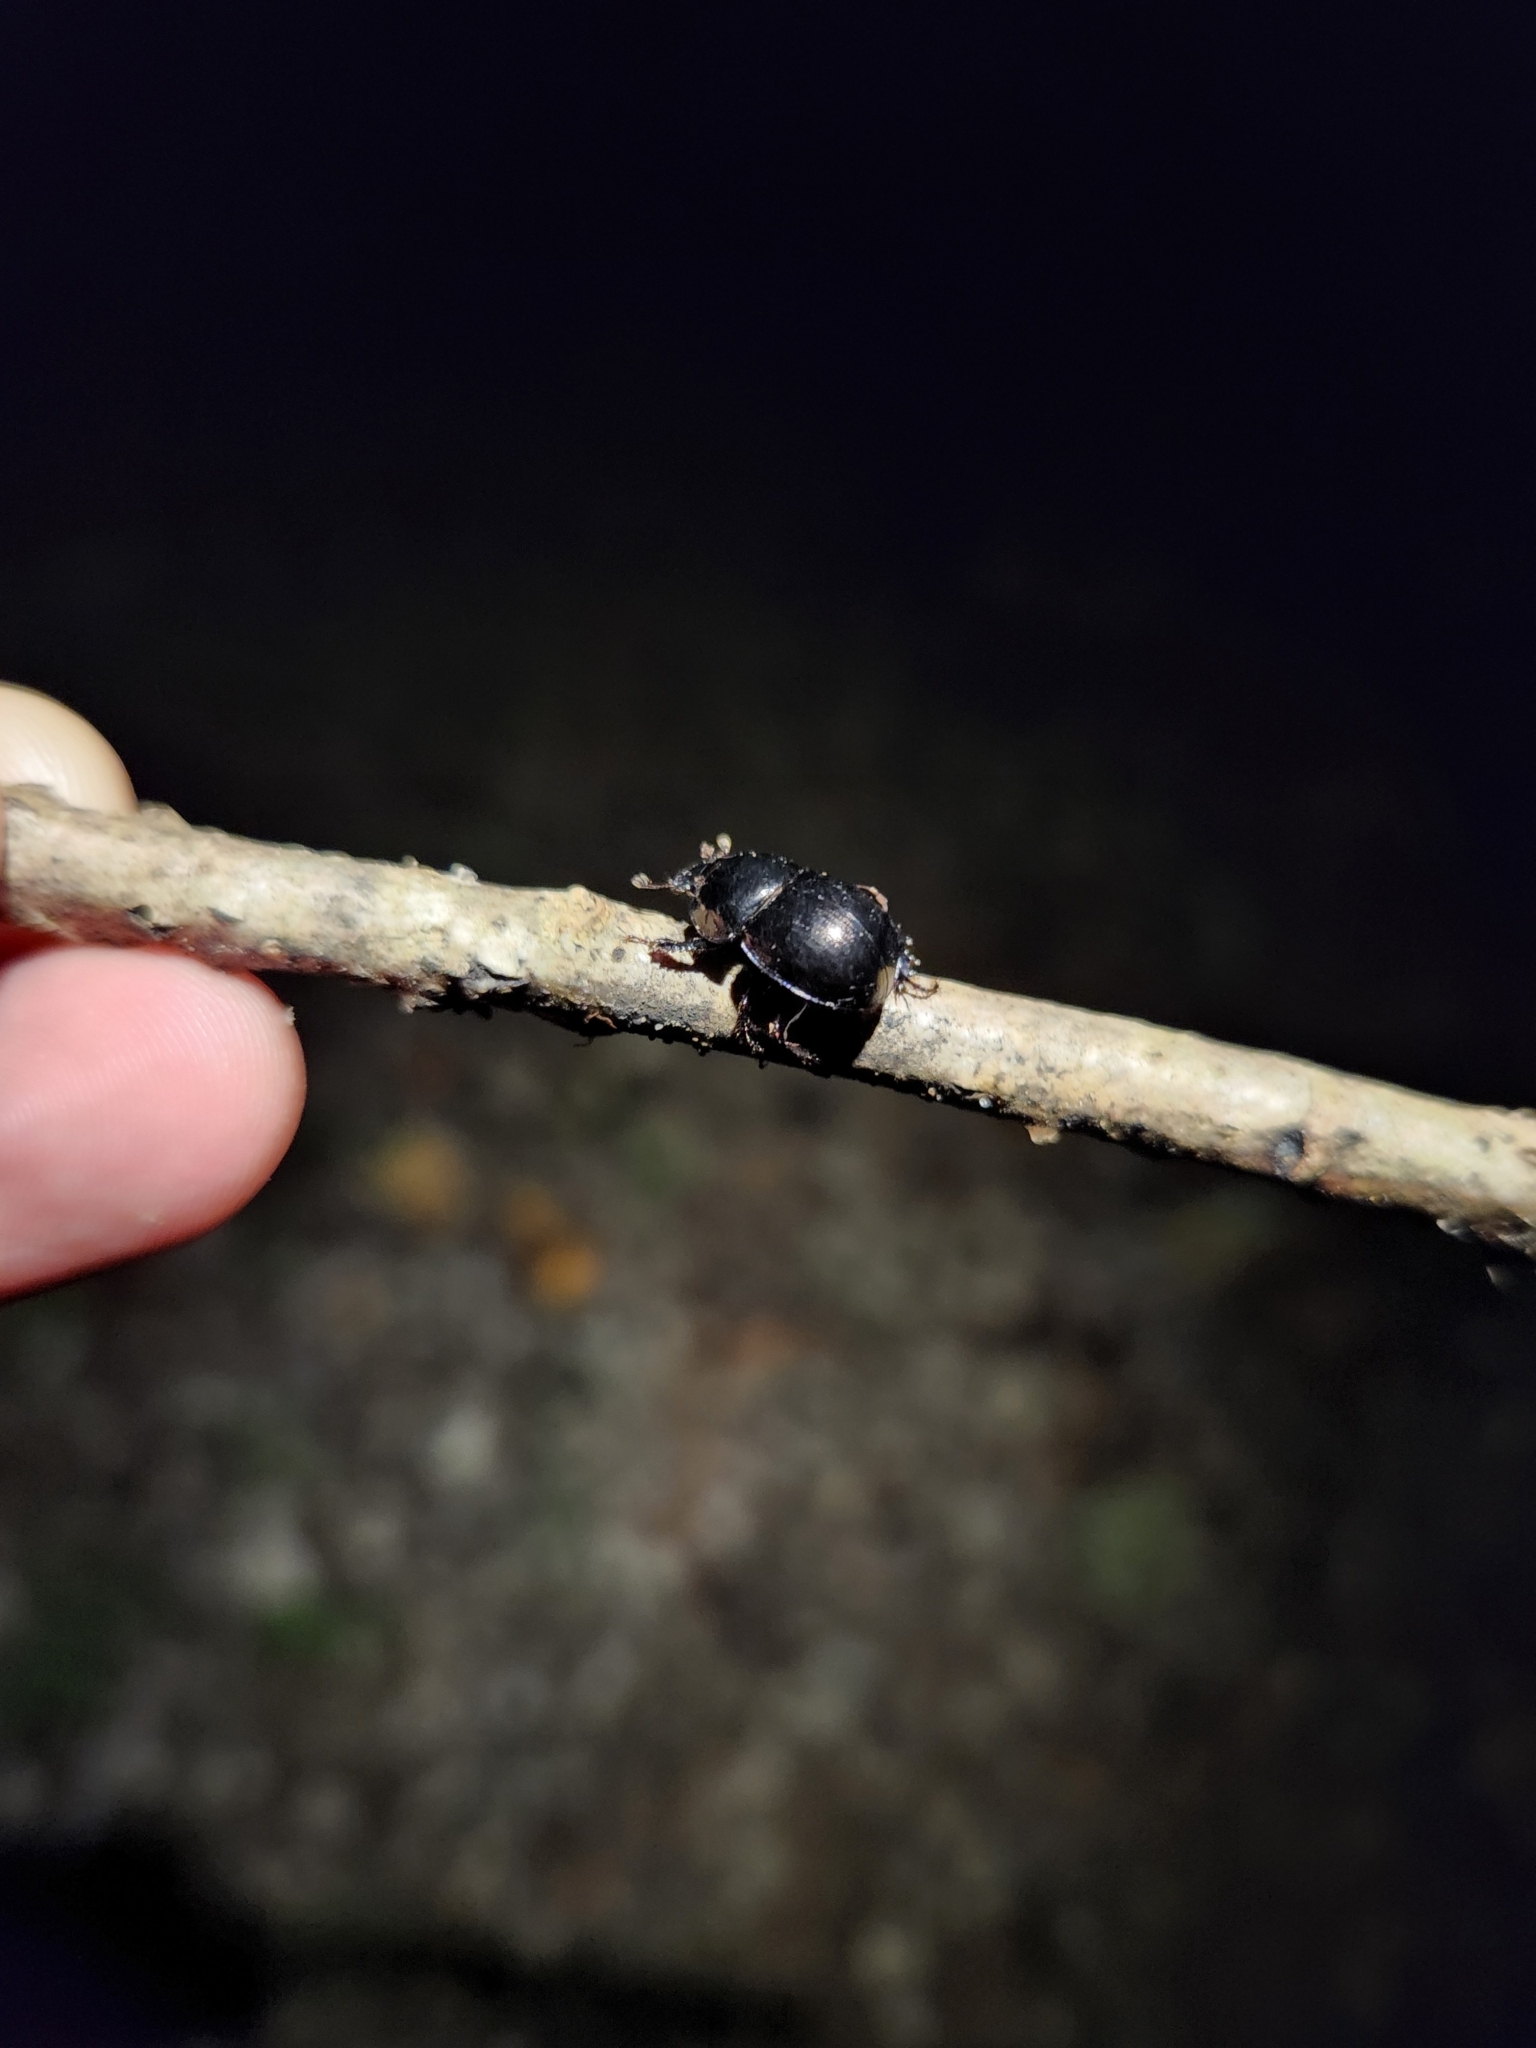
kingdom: Animalia
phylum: Arthropoda
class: Insecta
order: Coleoptera
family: Geotrupidae
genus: Cnemotrupes
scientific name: Cnemotrupes ulkei
